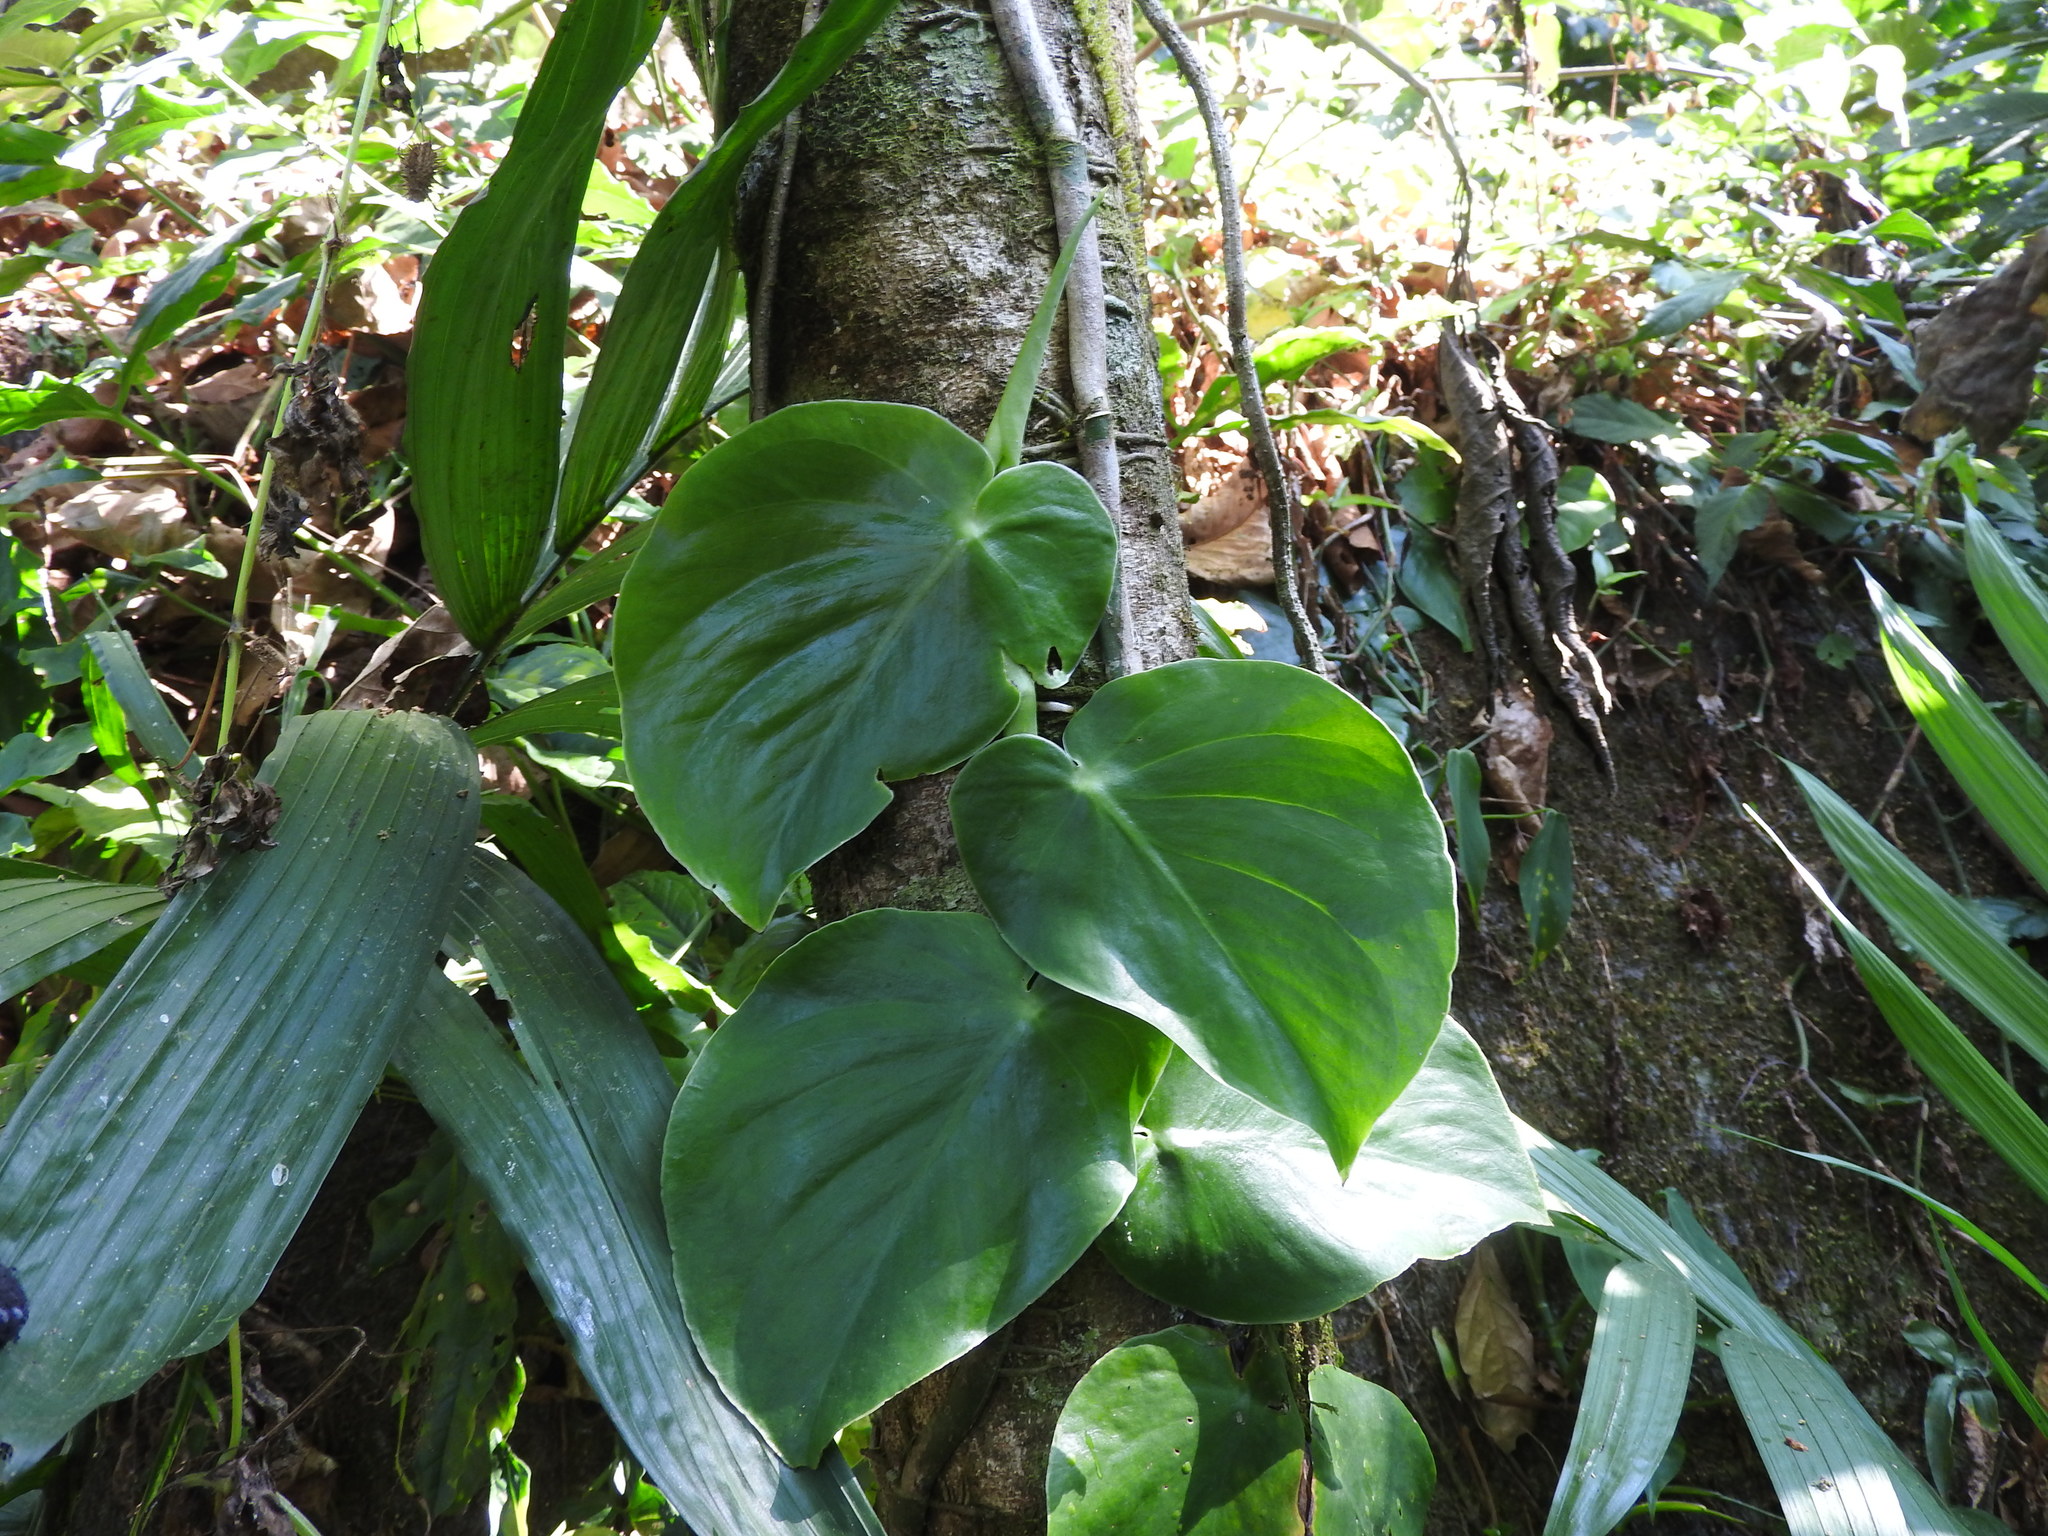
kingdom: Plantae
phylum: Tracheophyta
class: Liliopsida
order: Alismatales
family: Araceae
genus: Monstera
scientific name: Monstera acuminata
